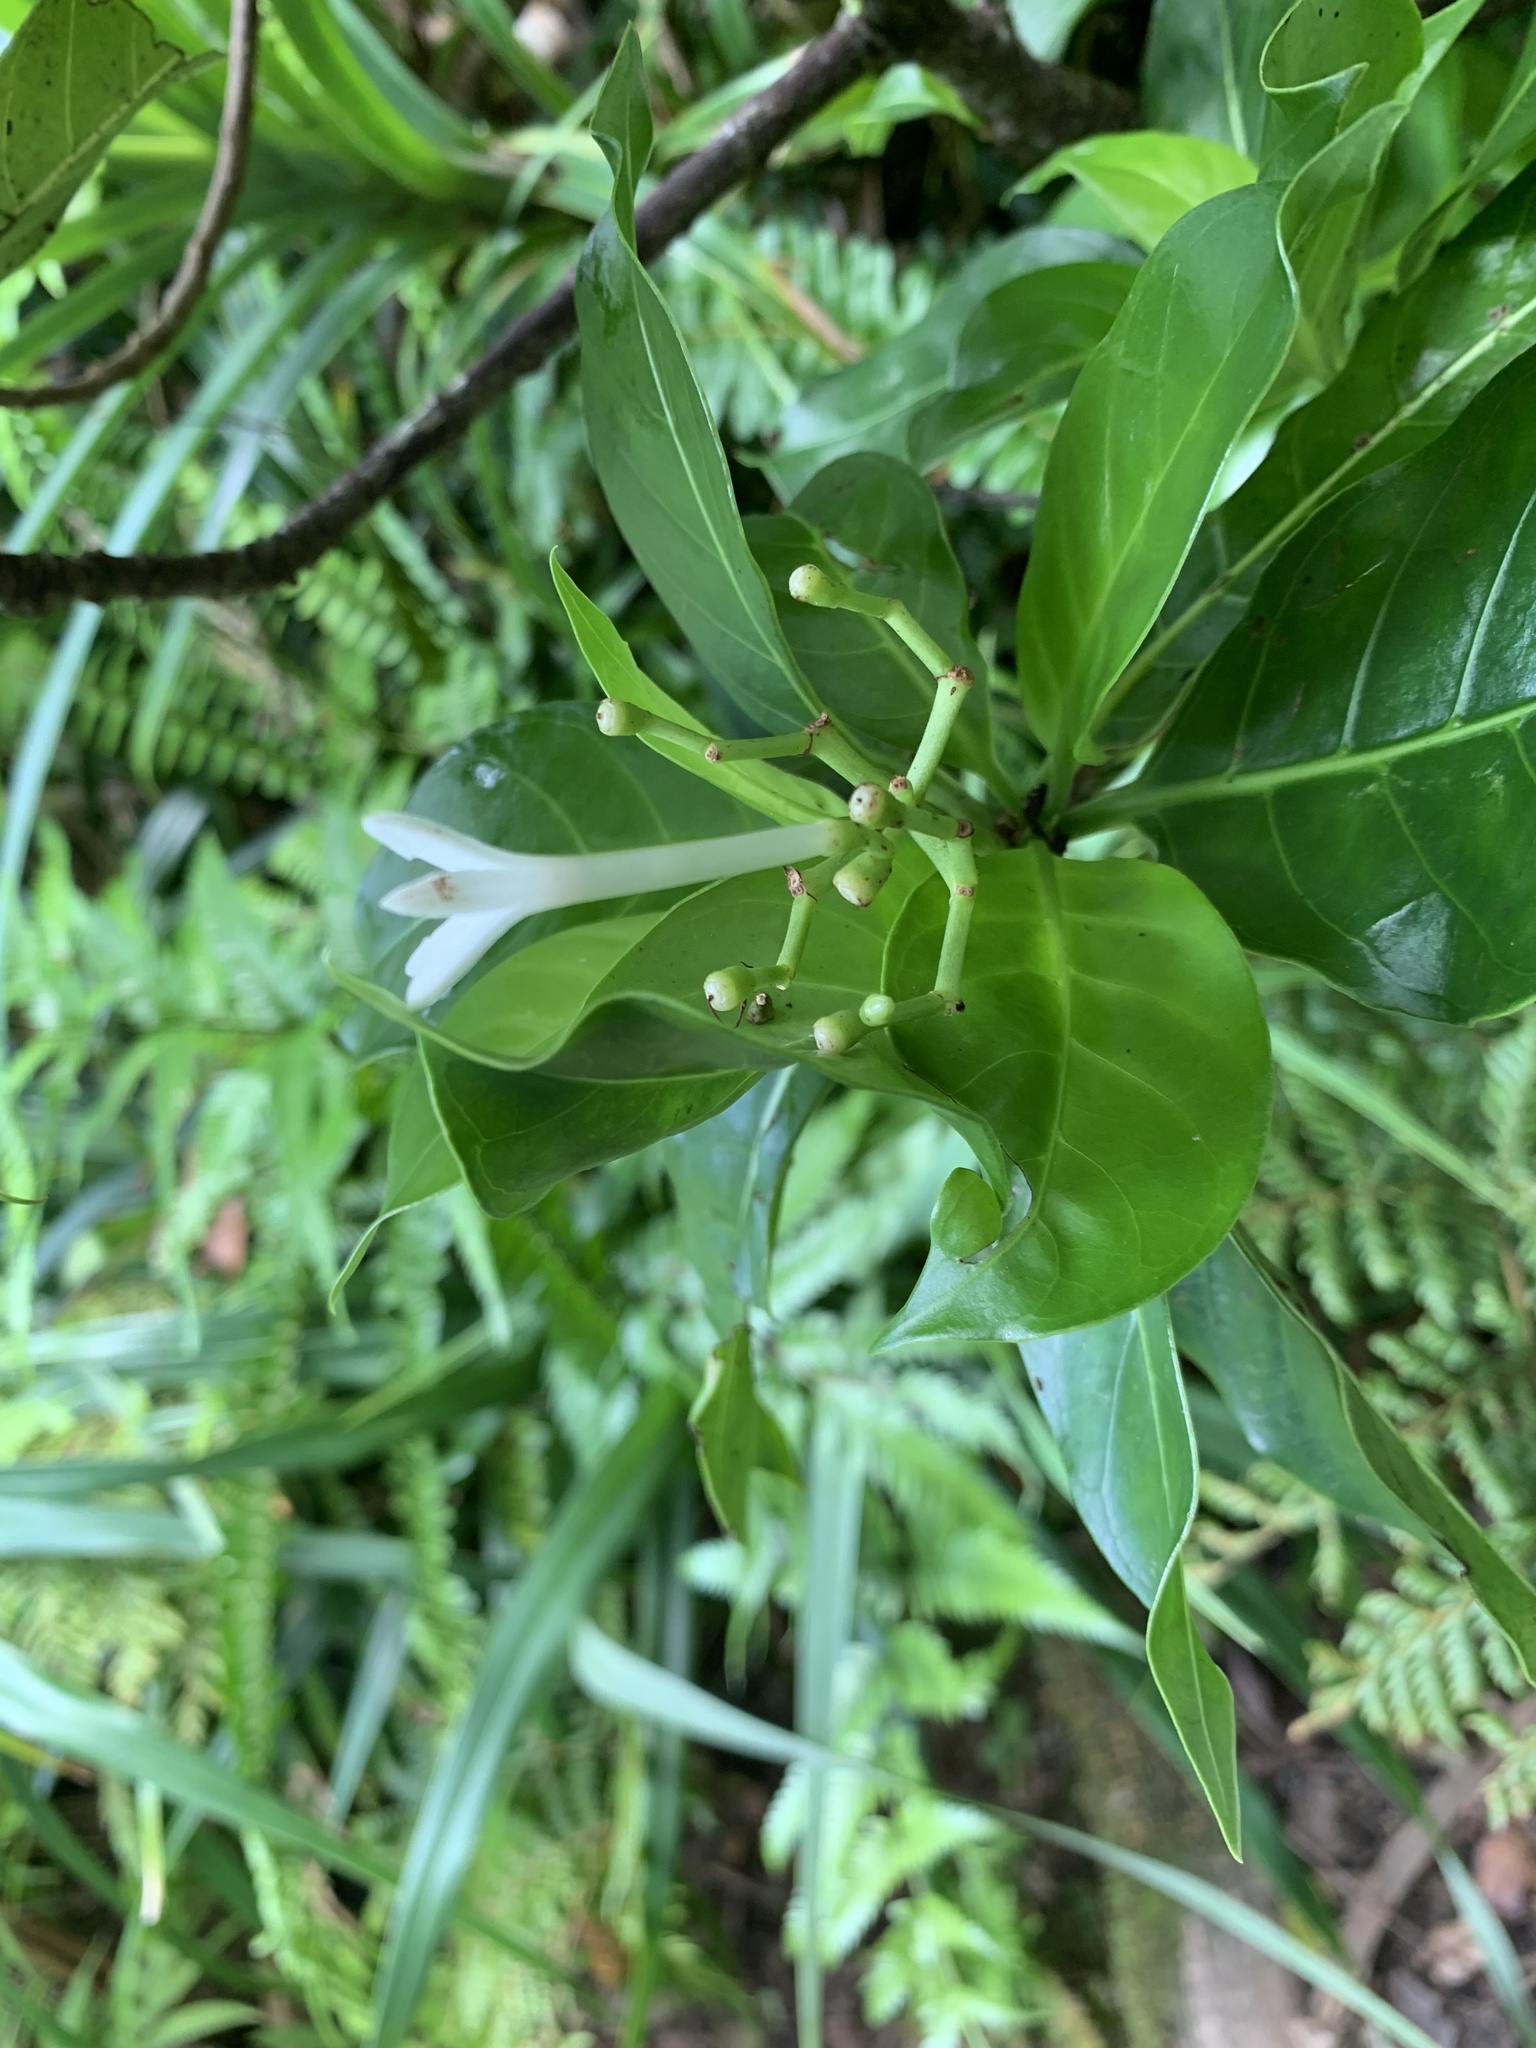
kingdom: Plantae
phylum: Tracheophyta
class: Magnoliopsida
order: Gentianales
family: Rubiaceae
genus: Psychotria
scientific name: Psychotria homalosperma
